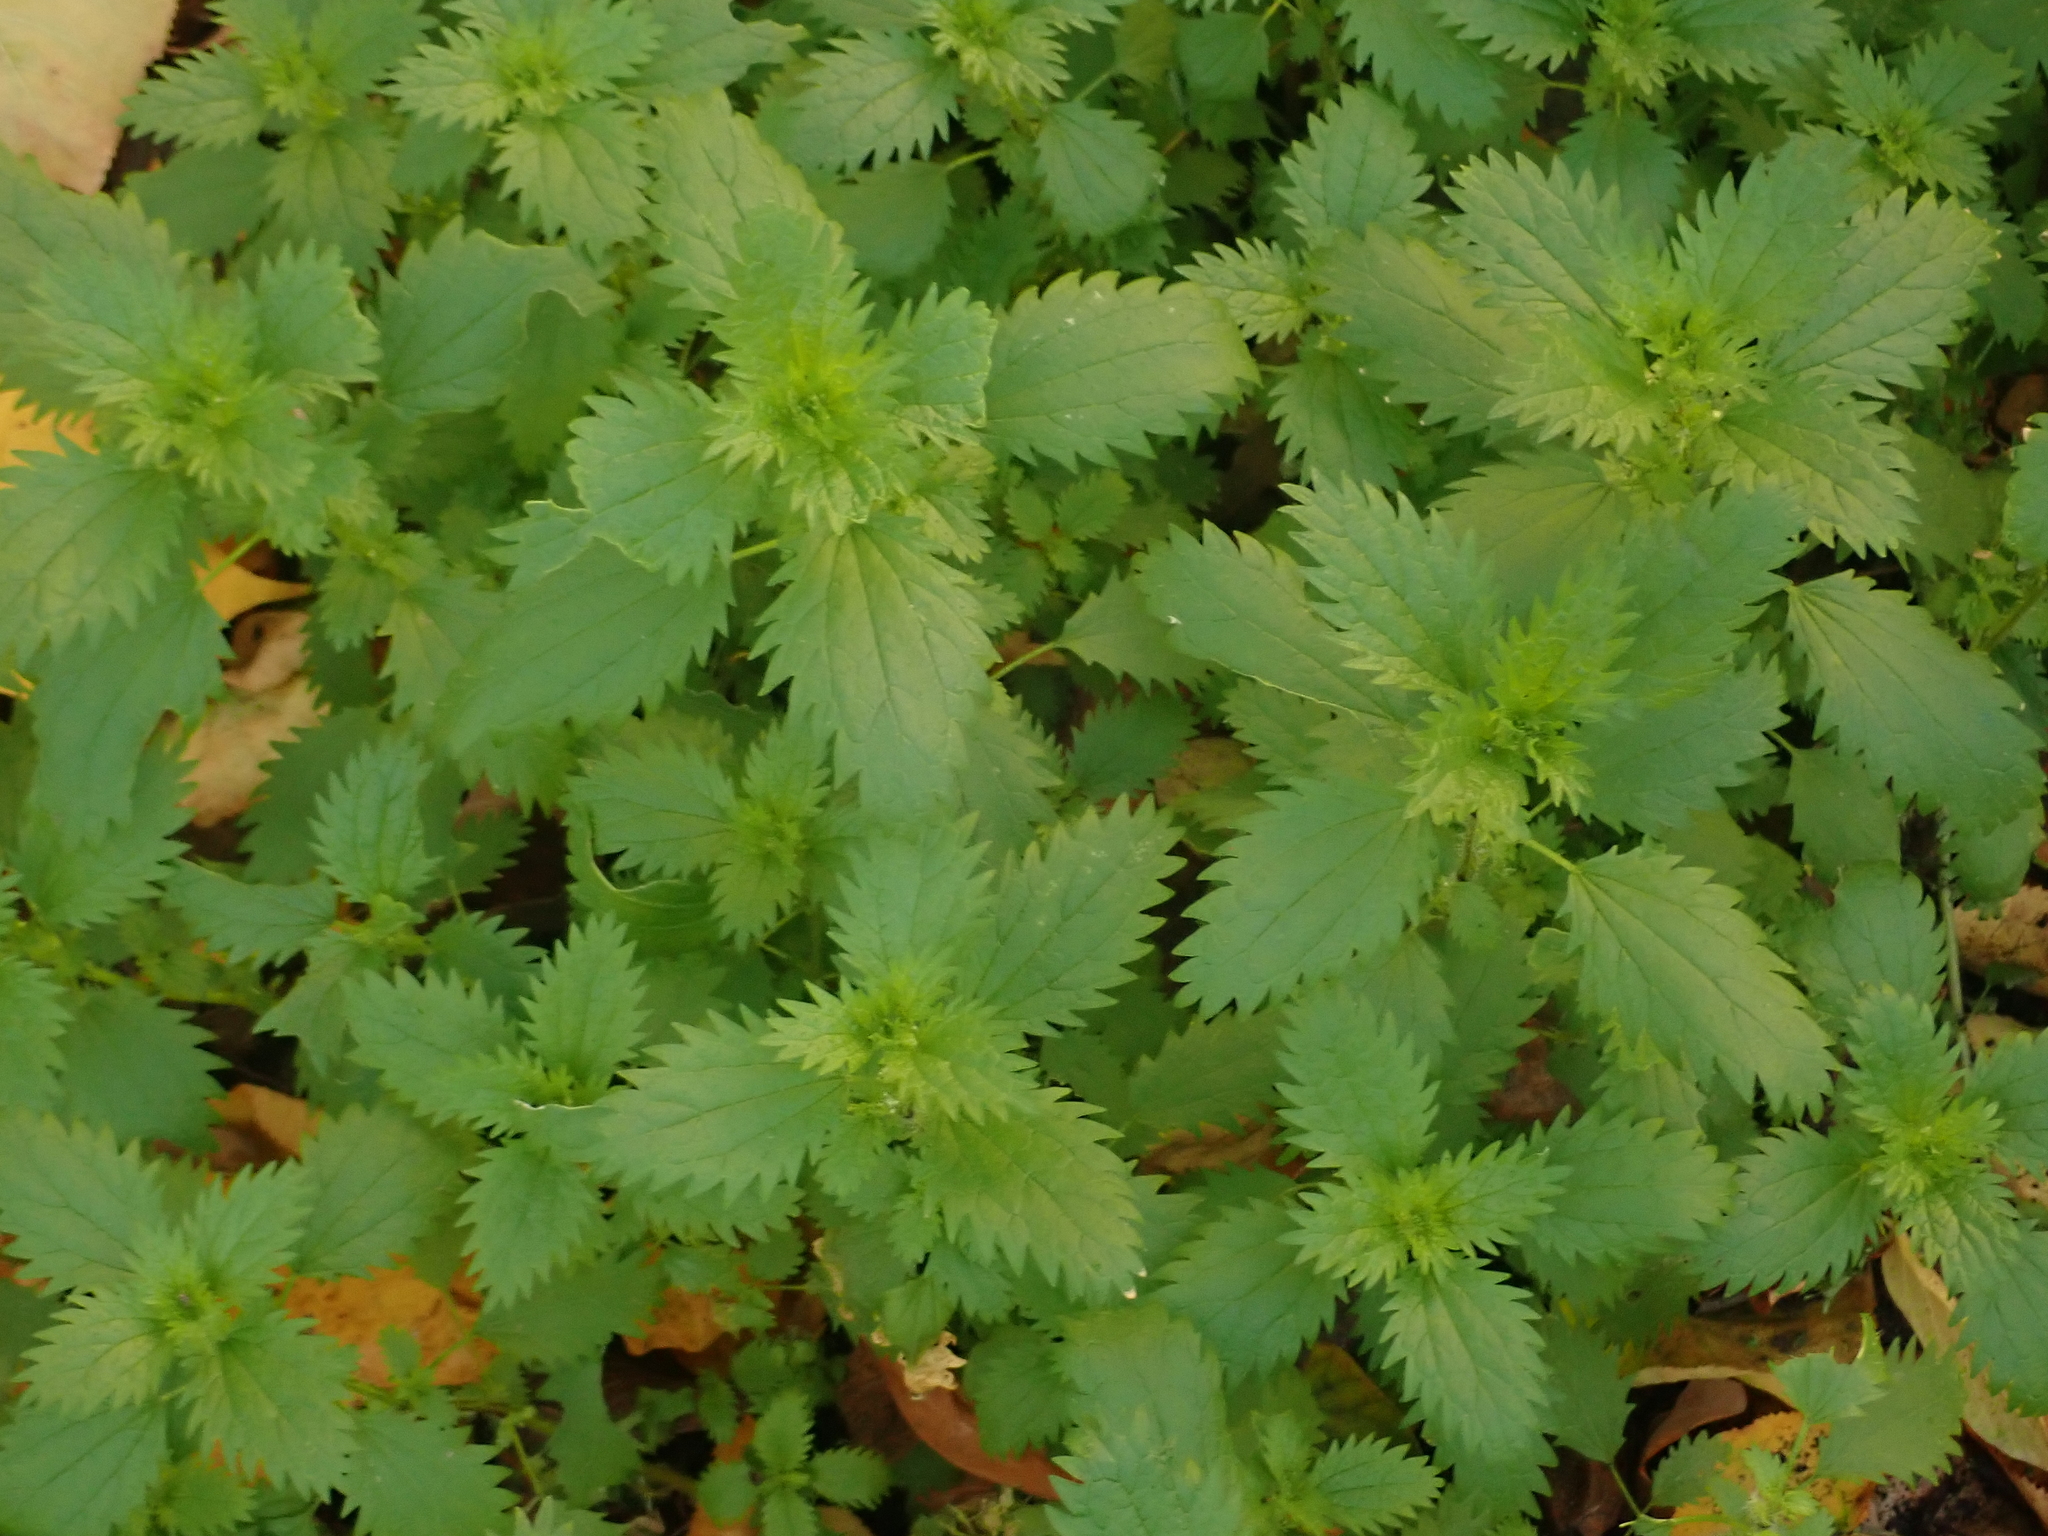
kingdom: Plantae
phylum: Tracheophyta
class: Magnoliopsida
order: Rosales
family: Urticaceae
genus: Urtica
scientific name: Urtica urens
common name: Dwarf nettle
